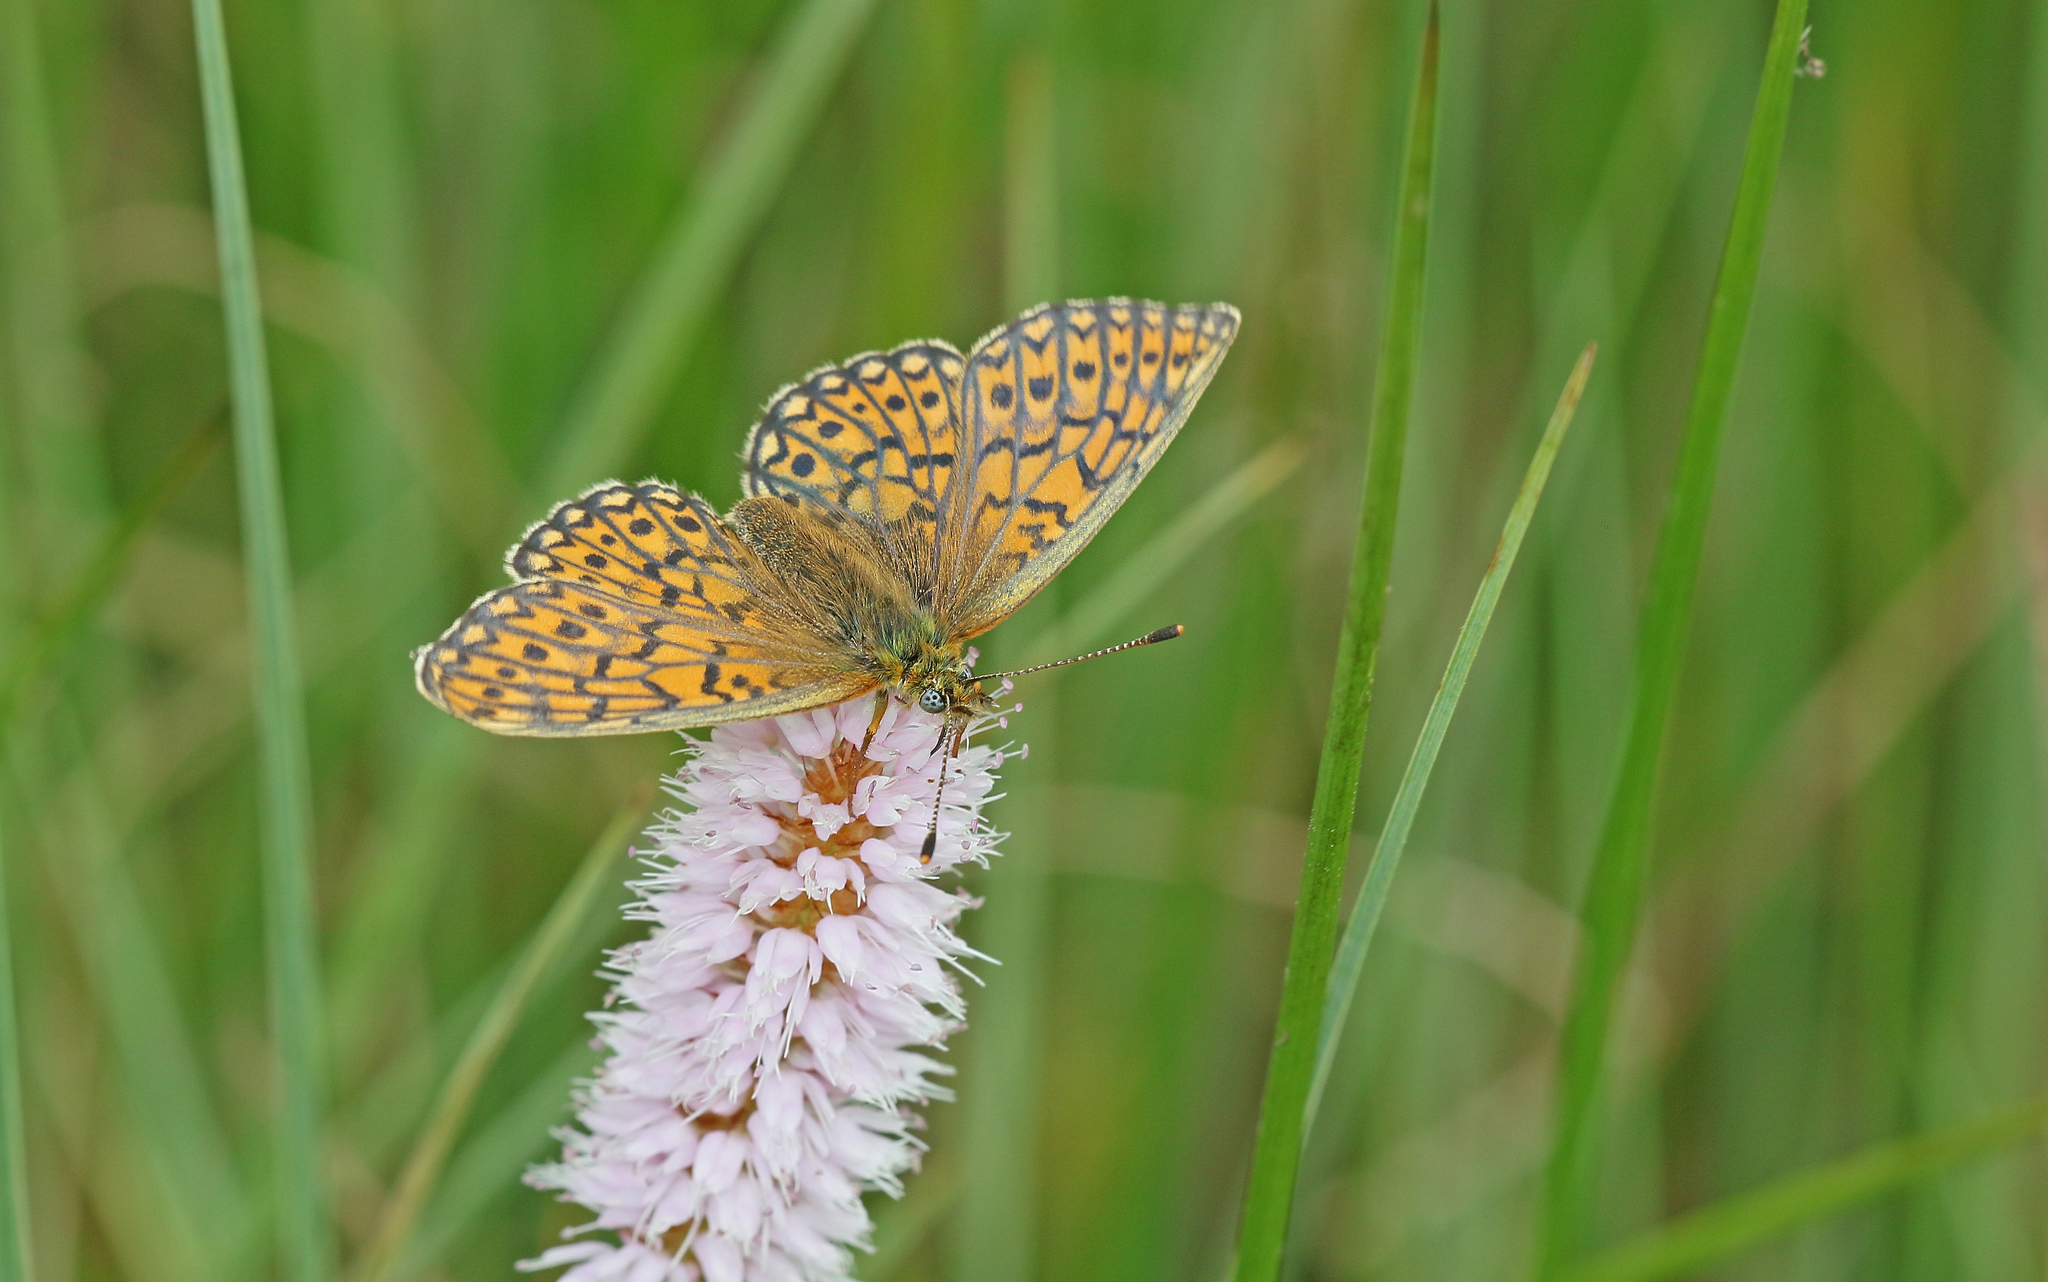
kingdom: Animalia
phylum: Arthropoda
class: Insecta
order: Lepidoptera
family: Nymphalidae
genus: Boloria
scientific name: Boloria eunomia
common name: Bog fritillary
